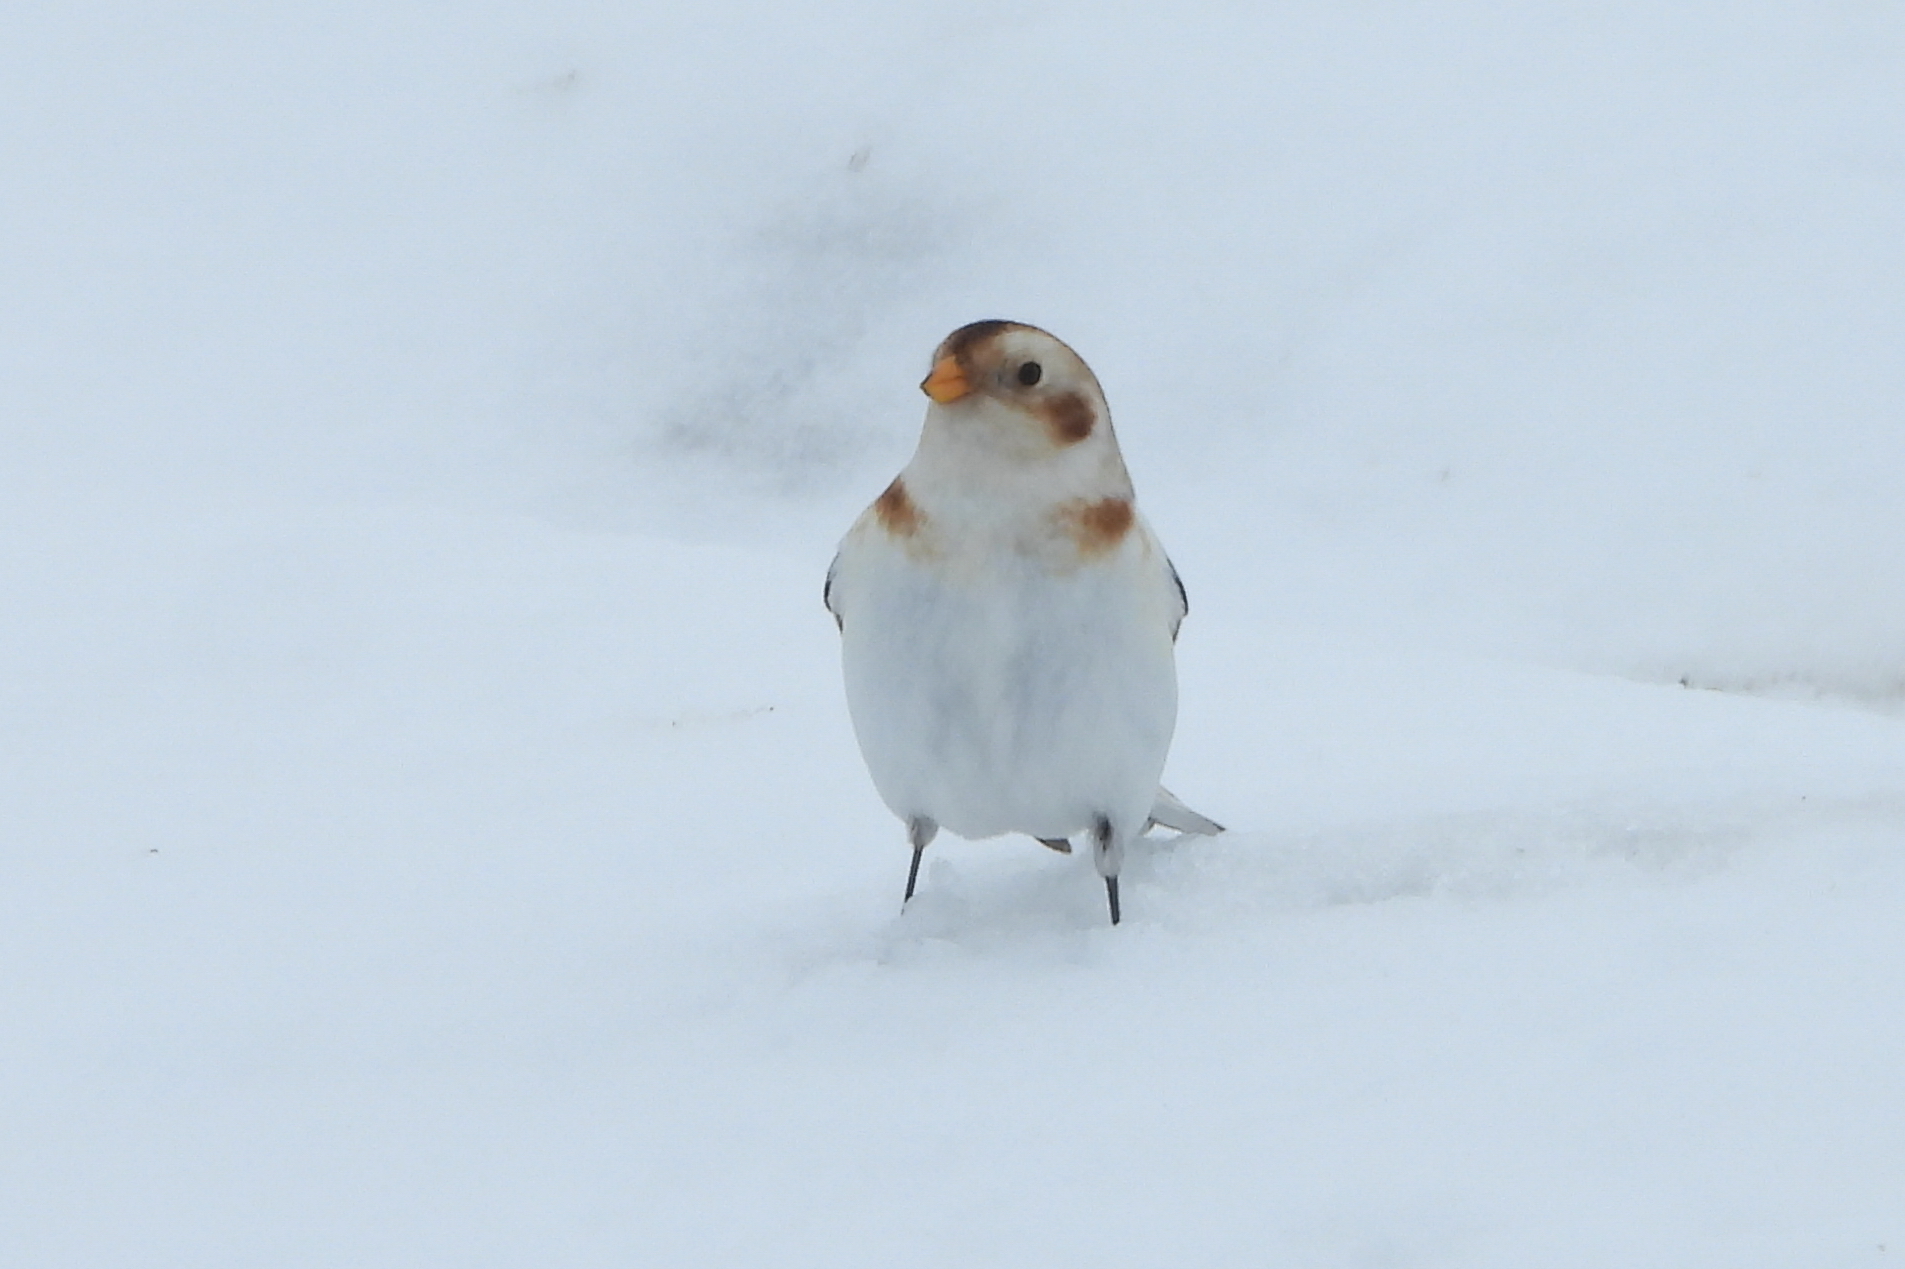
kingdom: Animalia
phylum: Chordata
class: Aves
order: Passeriformes
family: Calcariidae
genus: Plectrophenax
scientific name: Plectrophenax nivalis
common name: Snow bunting
